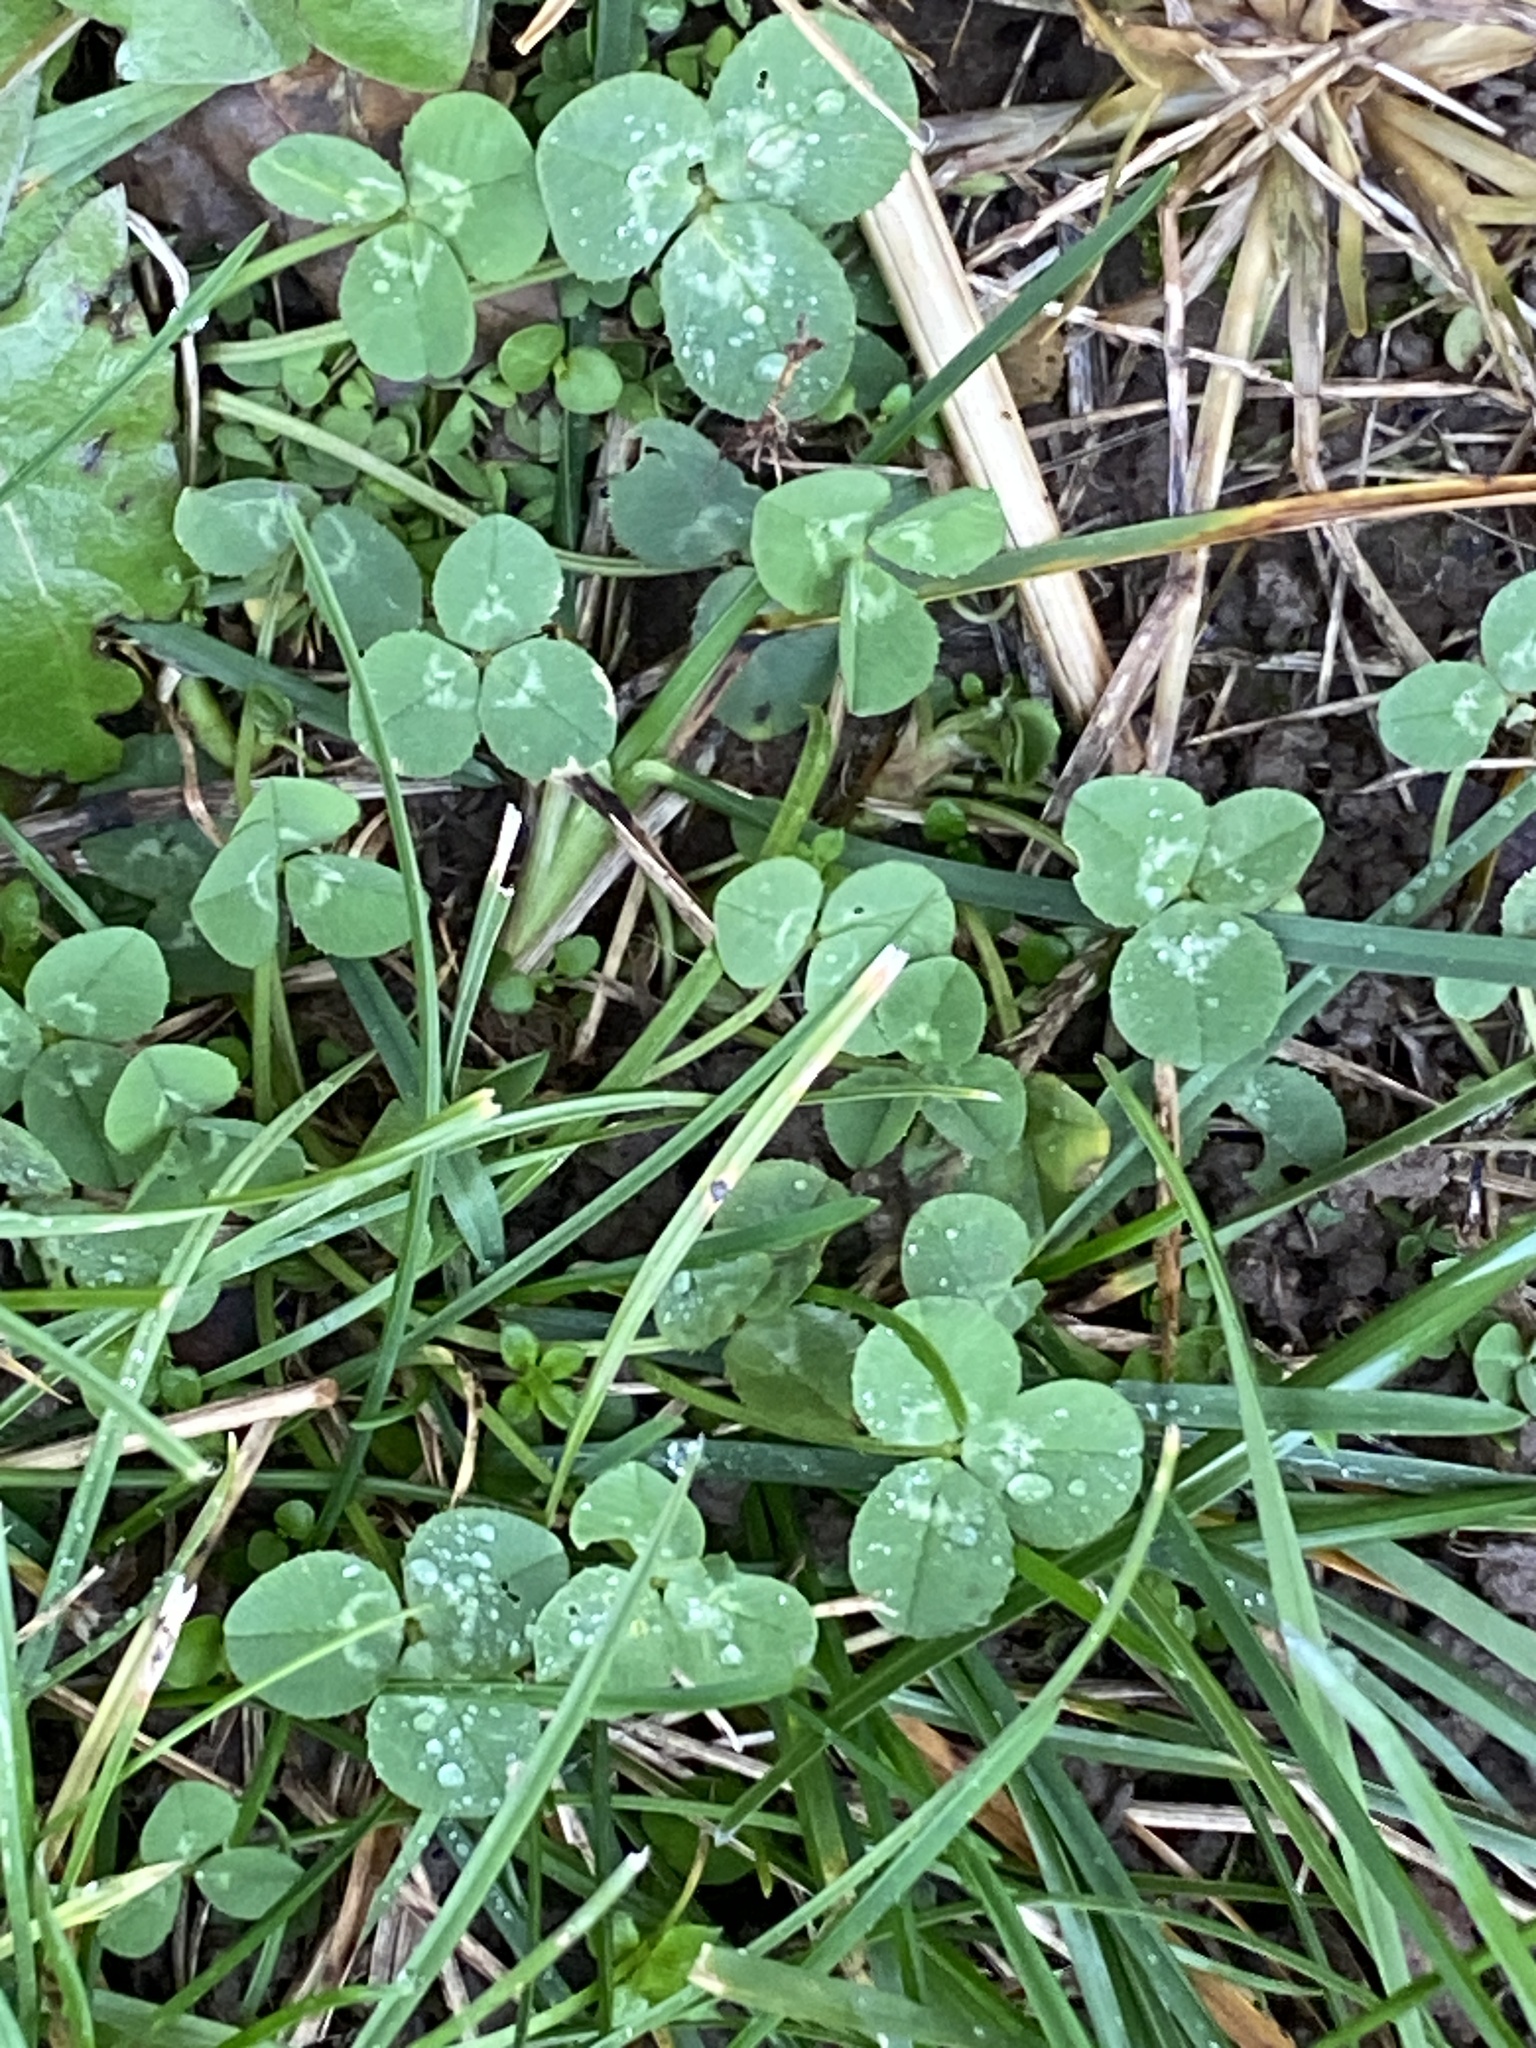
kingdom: Plantae
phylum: Tracheophyta
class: Magnoliopsida
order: Fabales
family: Fabaceae
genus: Trifolium
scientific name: Trifolium repens
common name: White clover
